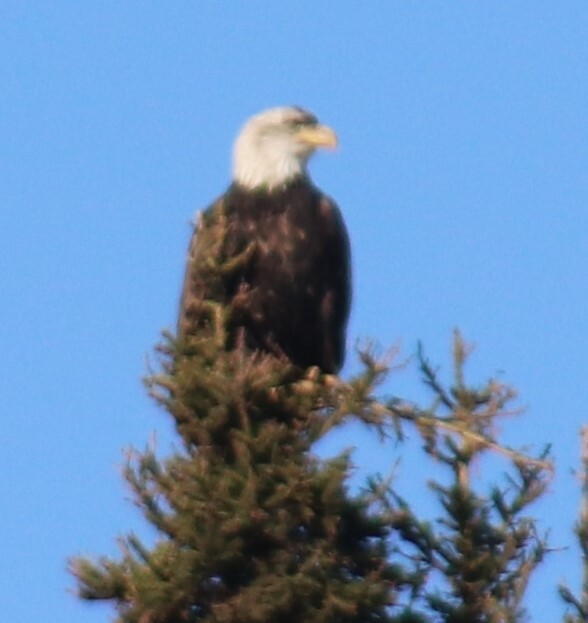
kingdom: Animalia
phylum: Chordata
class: Aves
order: Accipitriformes
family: Accipitridae
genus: Haliaeetus
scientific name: Haliaeetus leucocephalus
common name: Bald eagle
